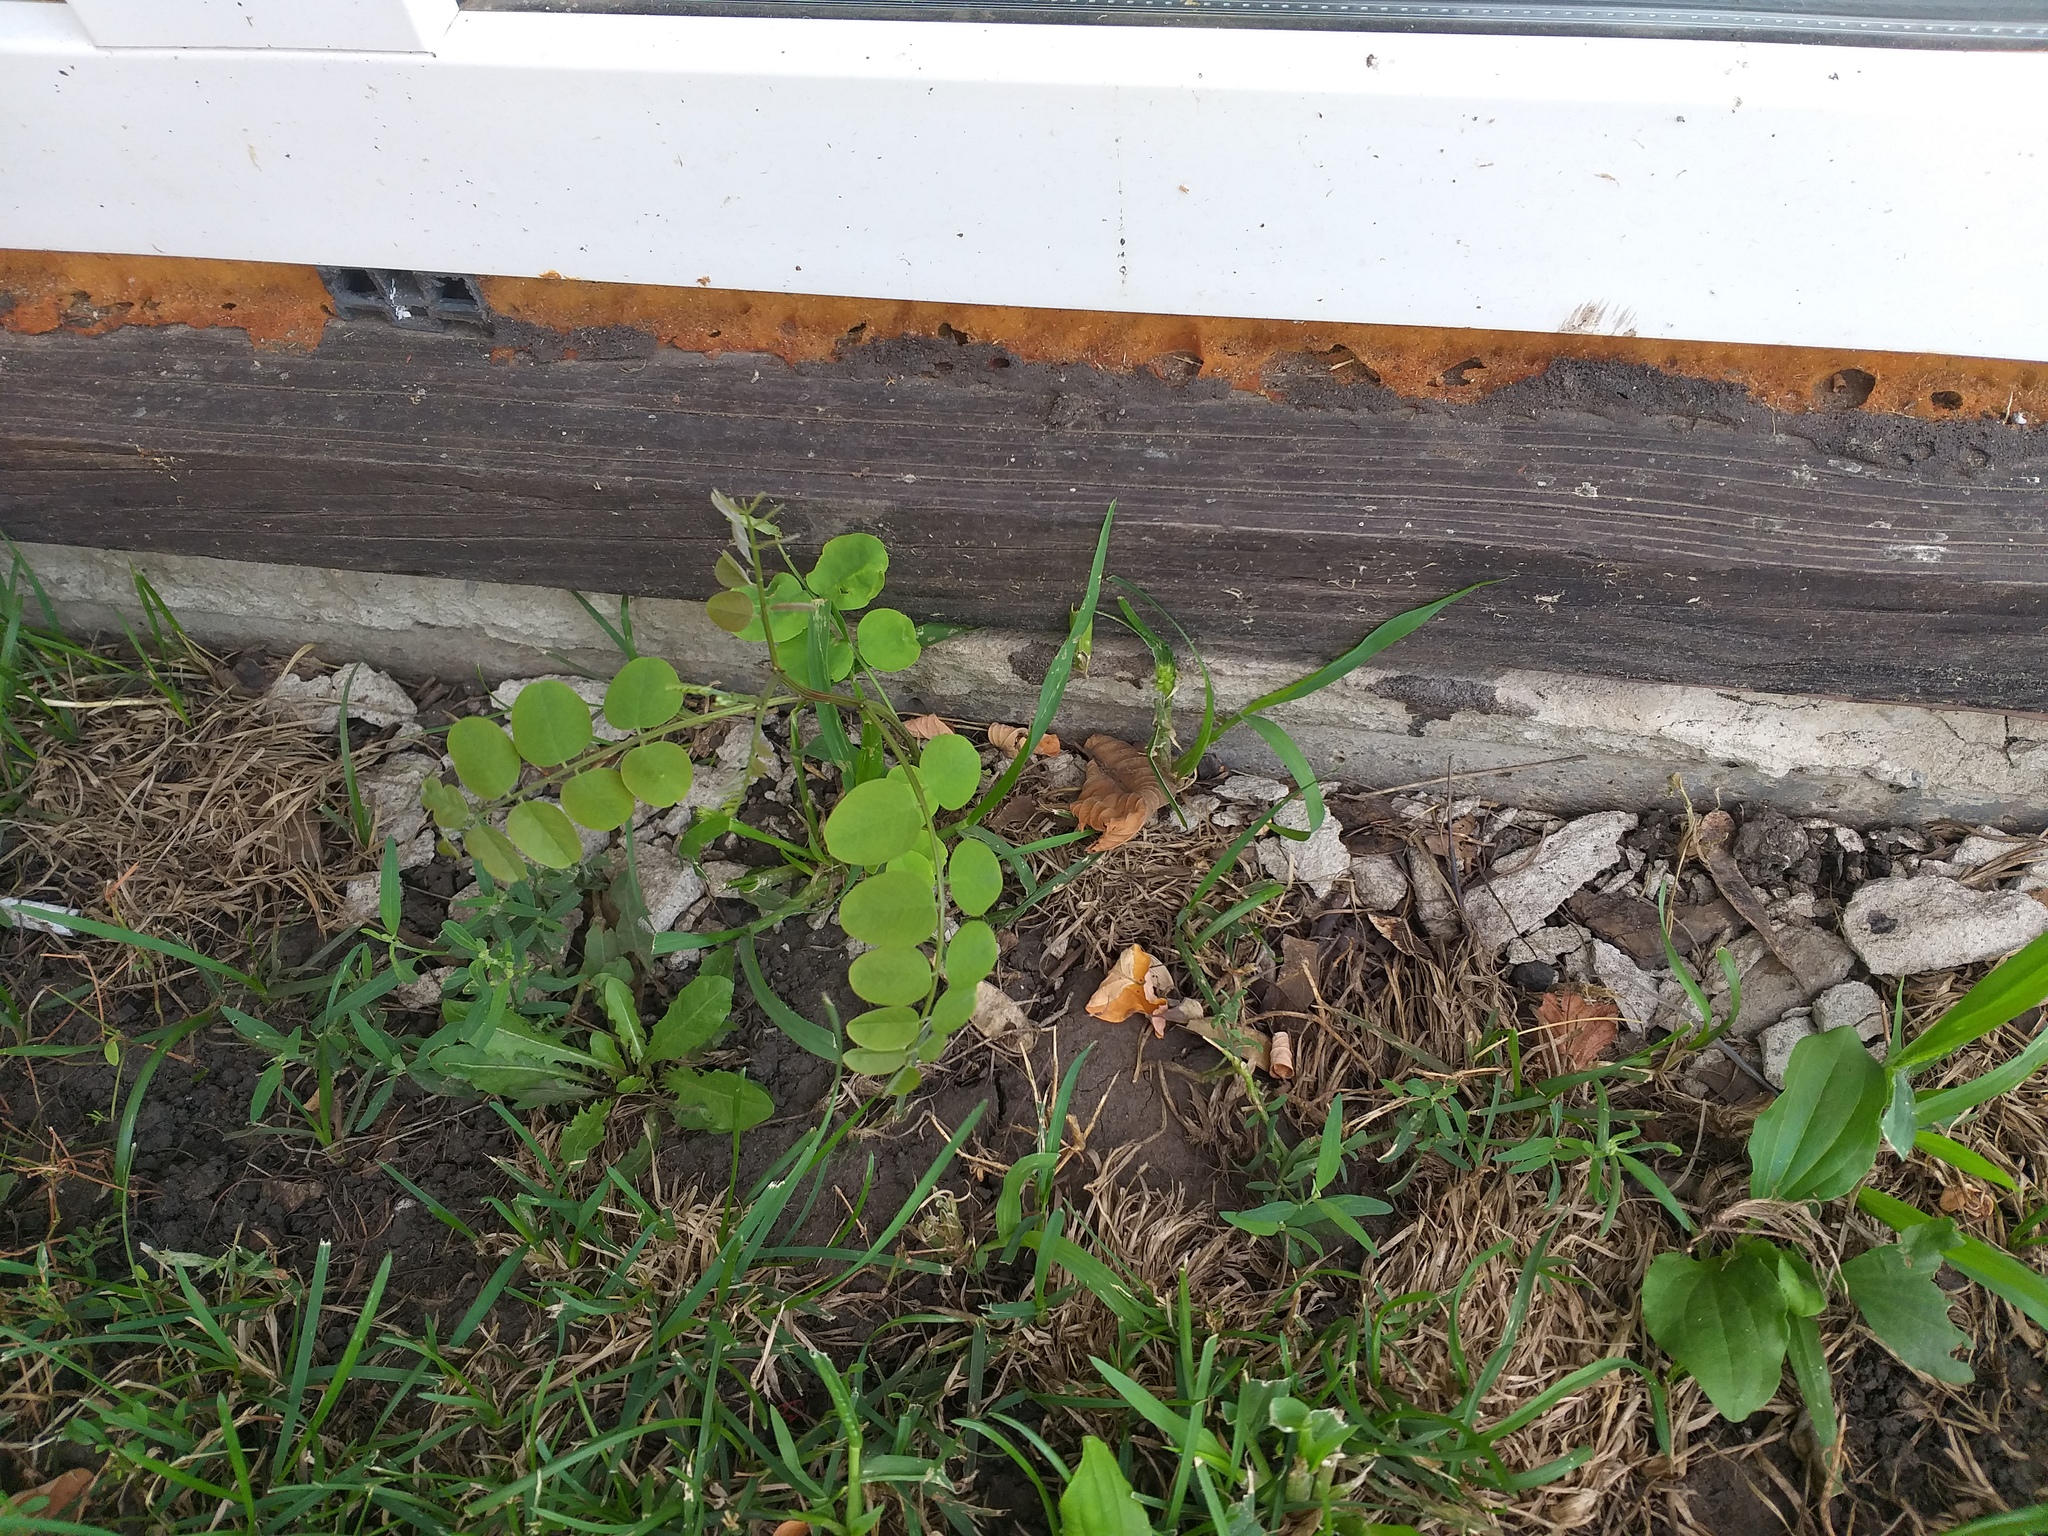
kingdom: Plantae
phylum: Tracheophyta
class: Magnoliopsida
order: Fabales
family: Fabaceae
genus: Robinia
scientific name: Robinia pseudoacacia
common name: Black locust
